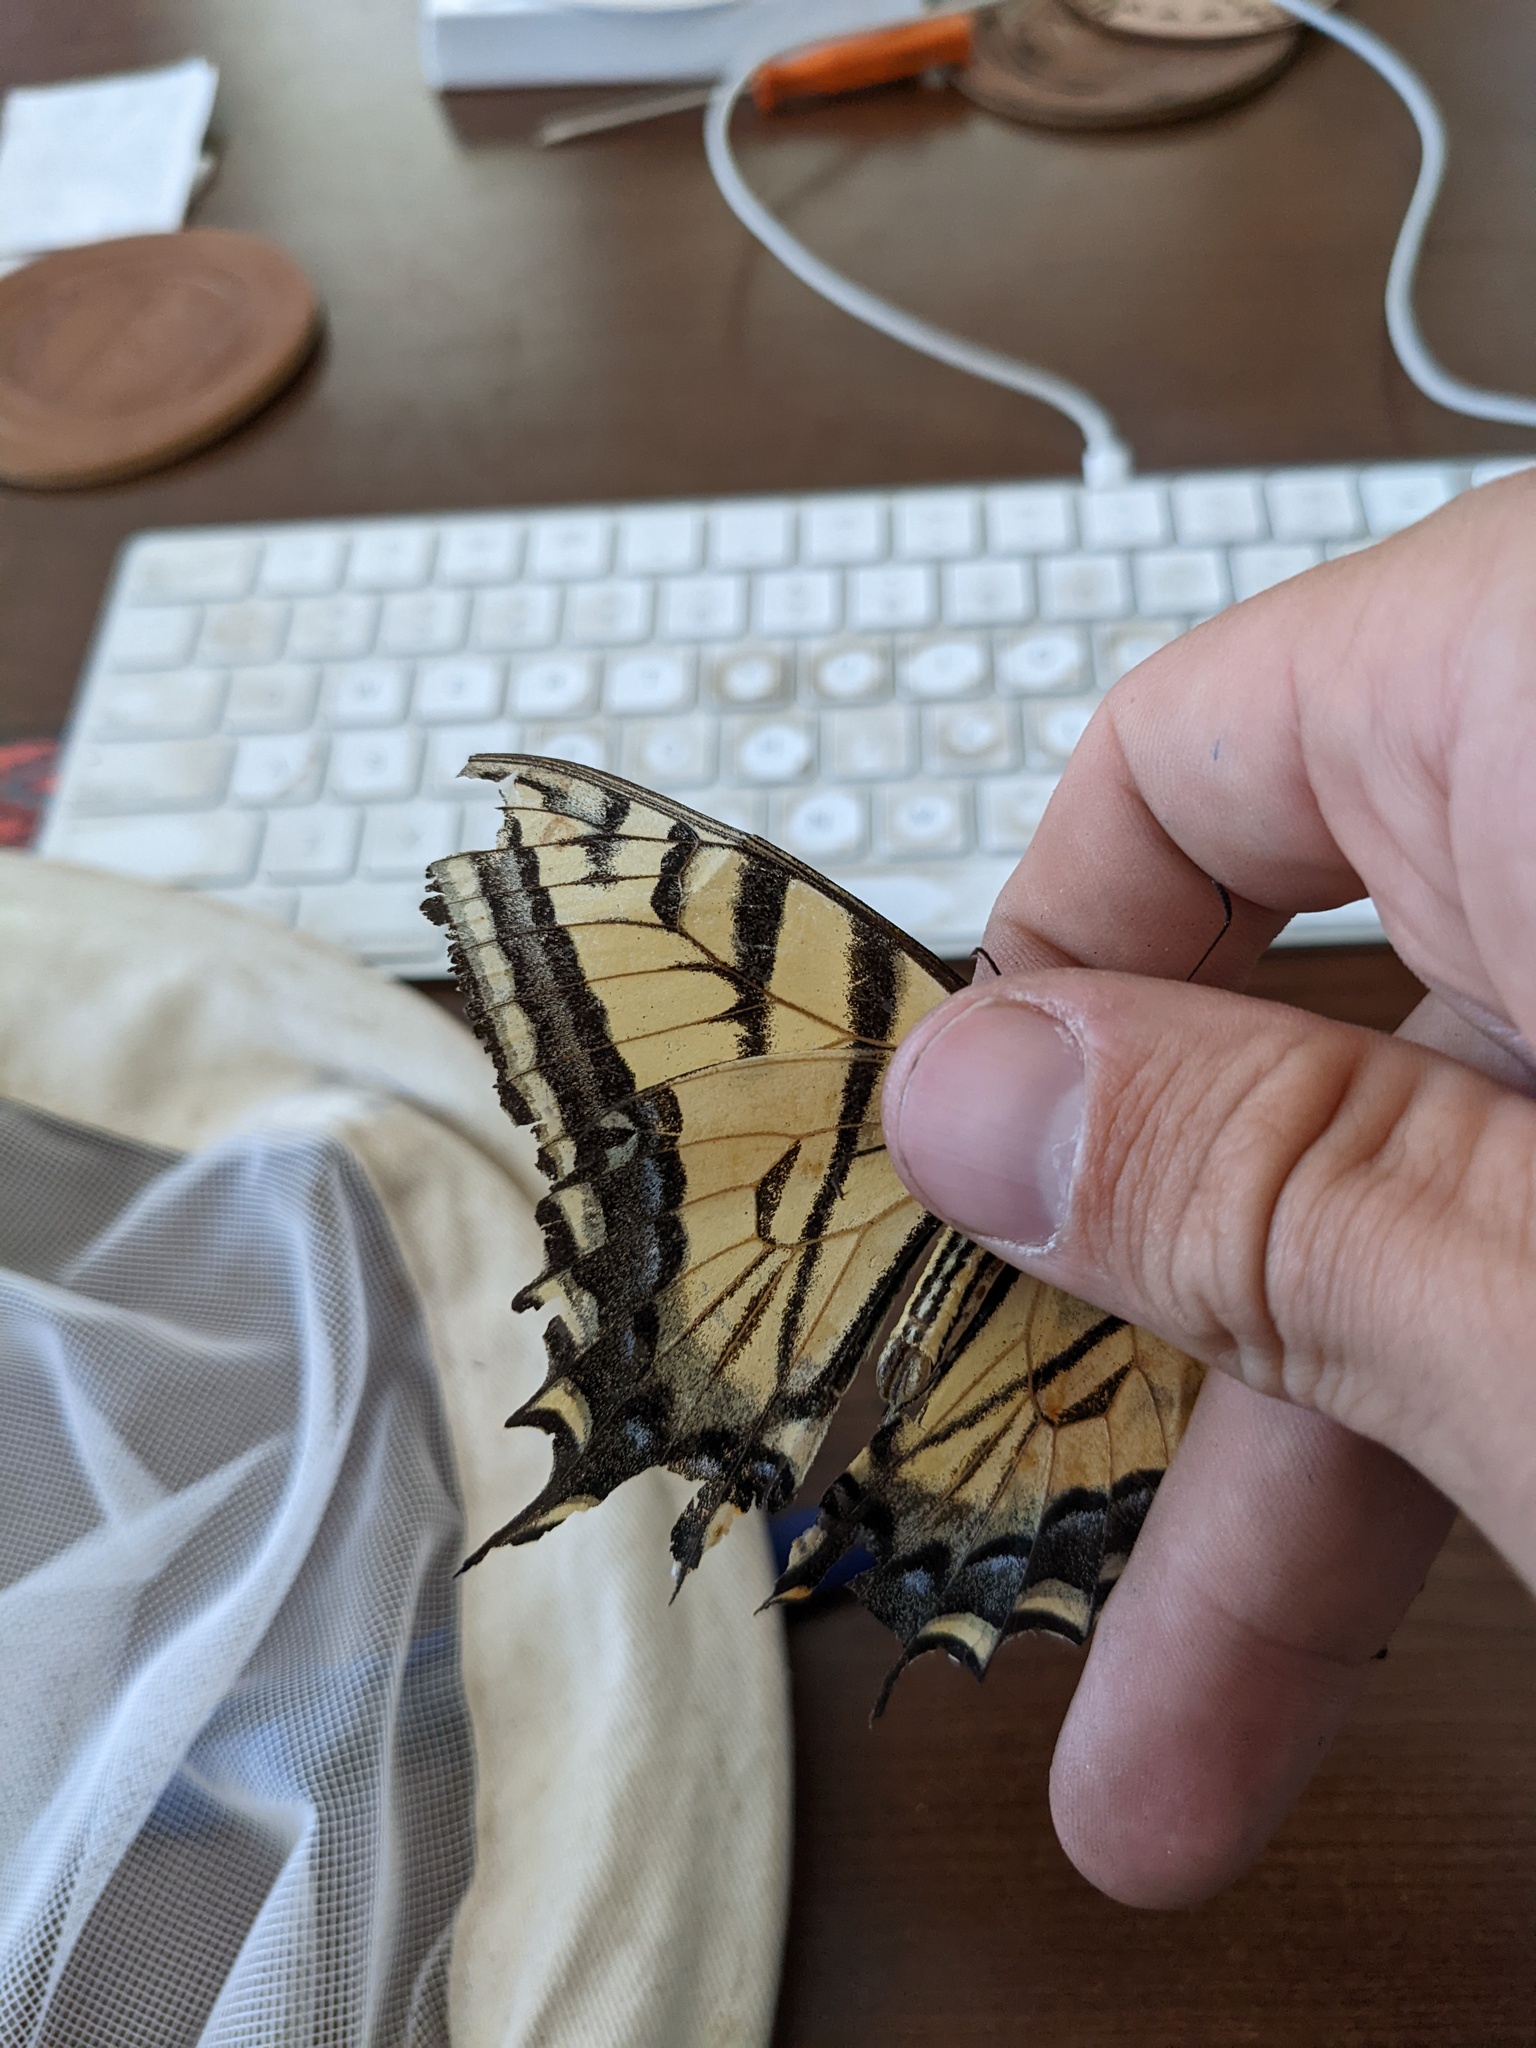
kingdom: Animalia
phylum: Arthropoda
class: Insecta
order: Lepidoptera
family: Papilionidae
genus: Papilio
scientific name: Papilio multicaudata
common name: Two-tailed tiger swallowtail
